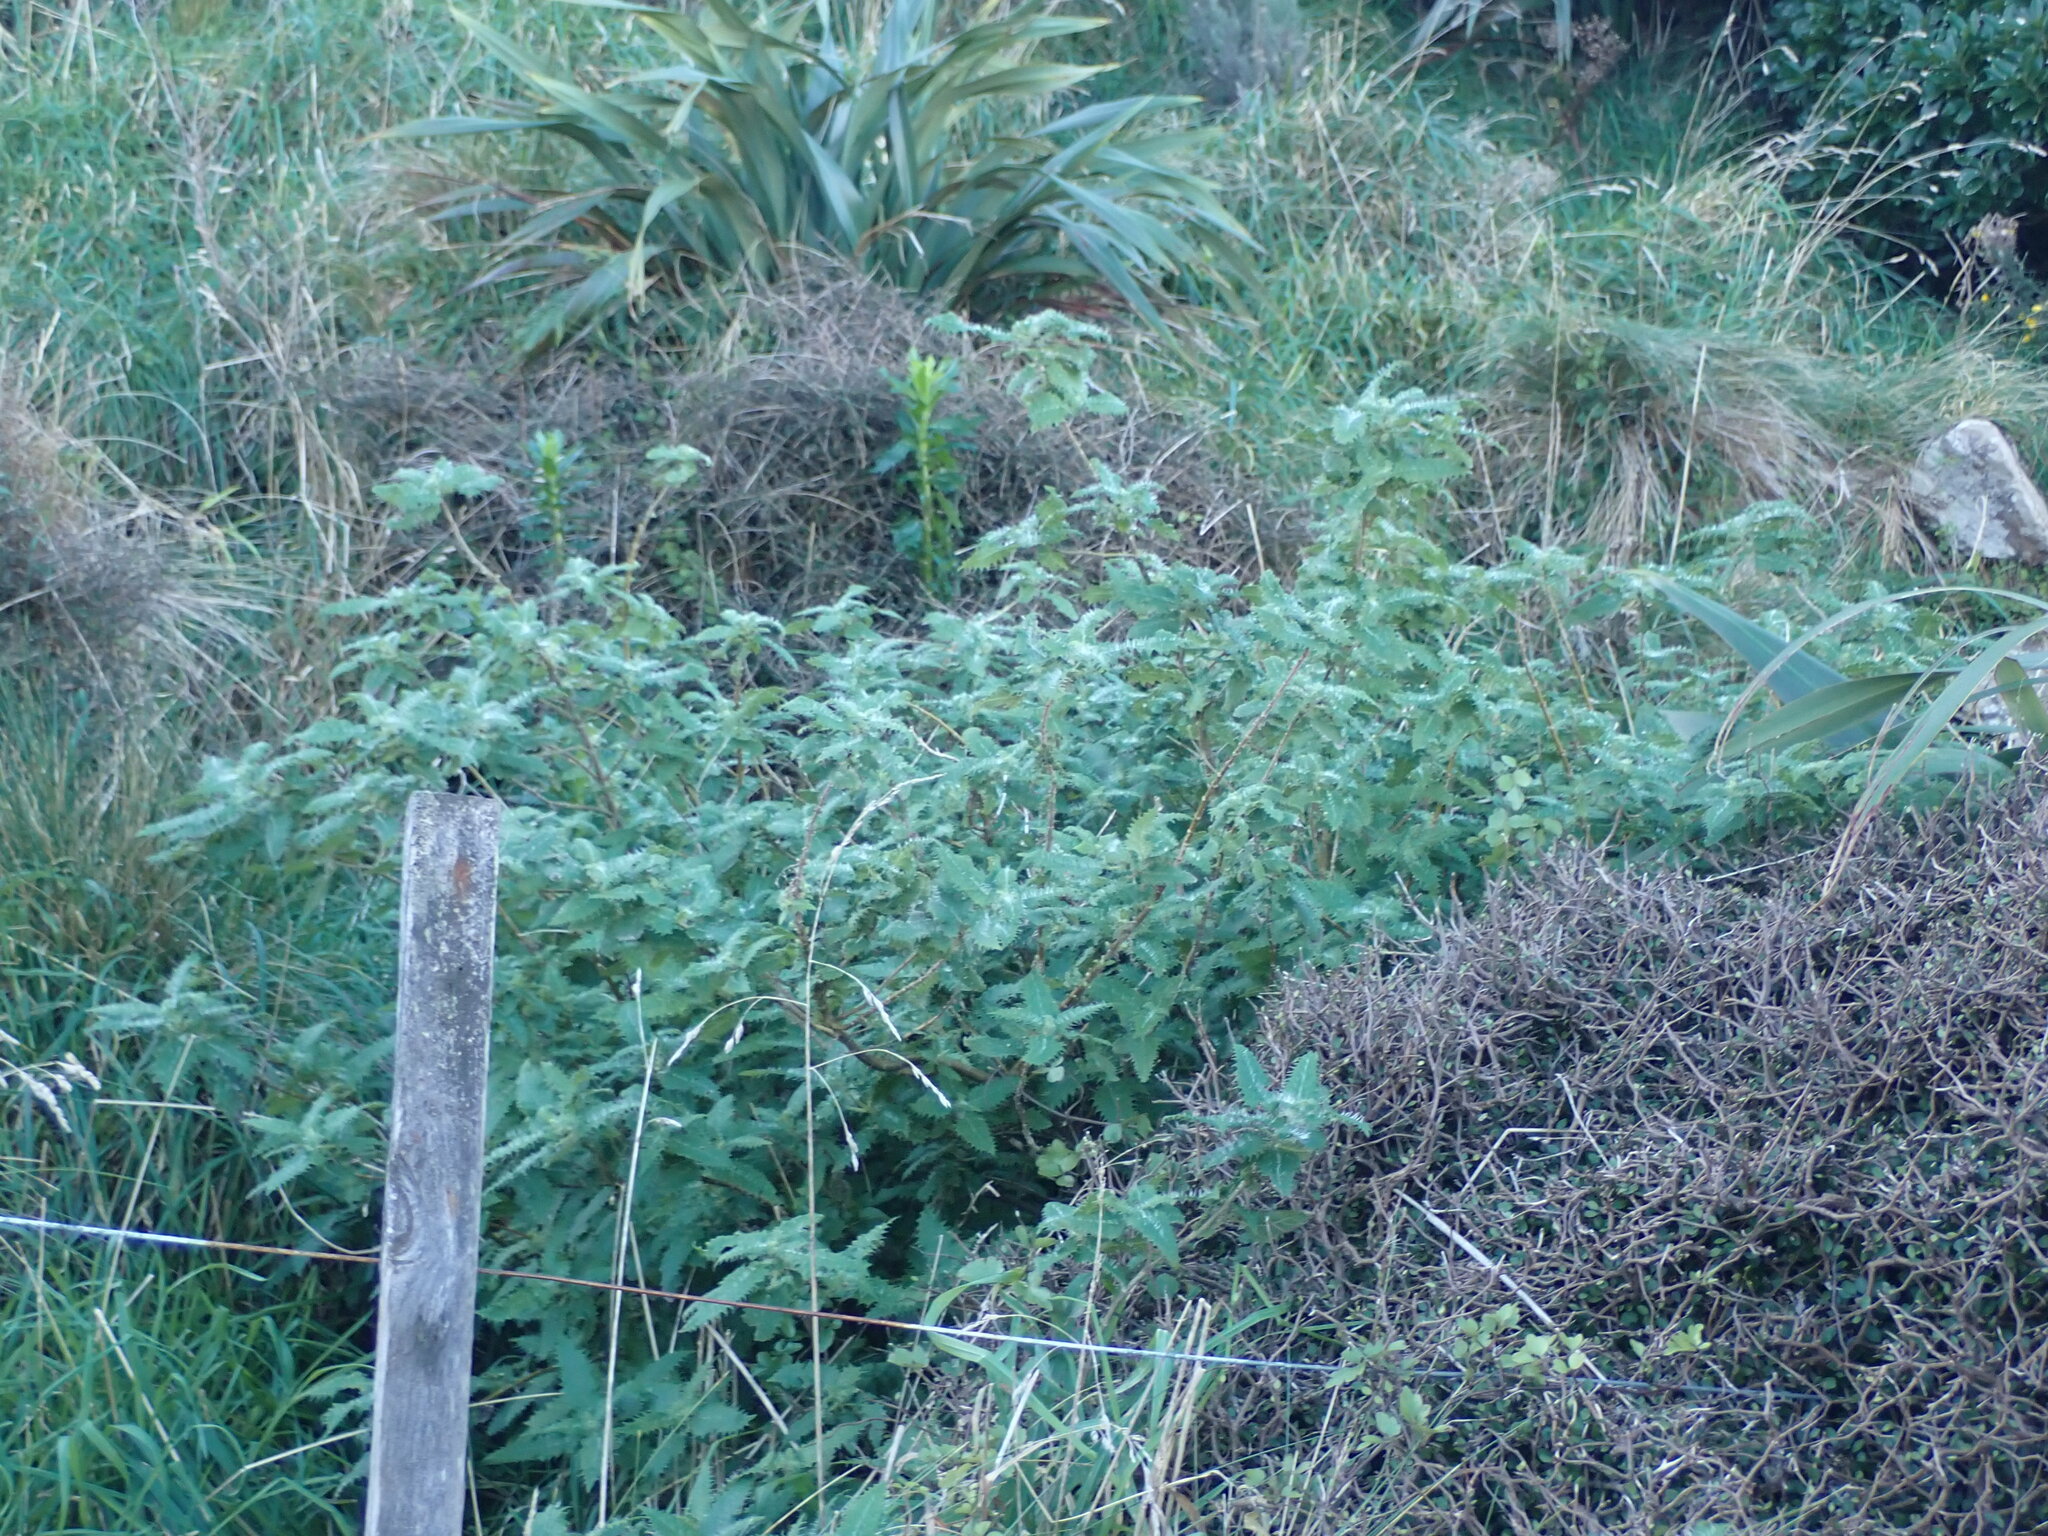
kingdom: Plantae
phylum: Tracheophyta
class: Magnoliopsida
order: Rosales
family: Urticaceae
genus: Urtica
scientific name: Urtica ferox
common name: Tree nettle
